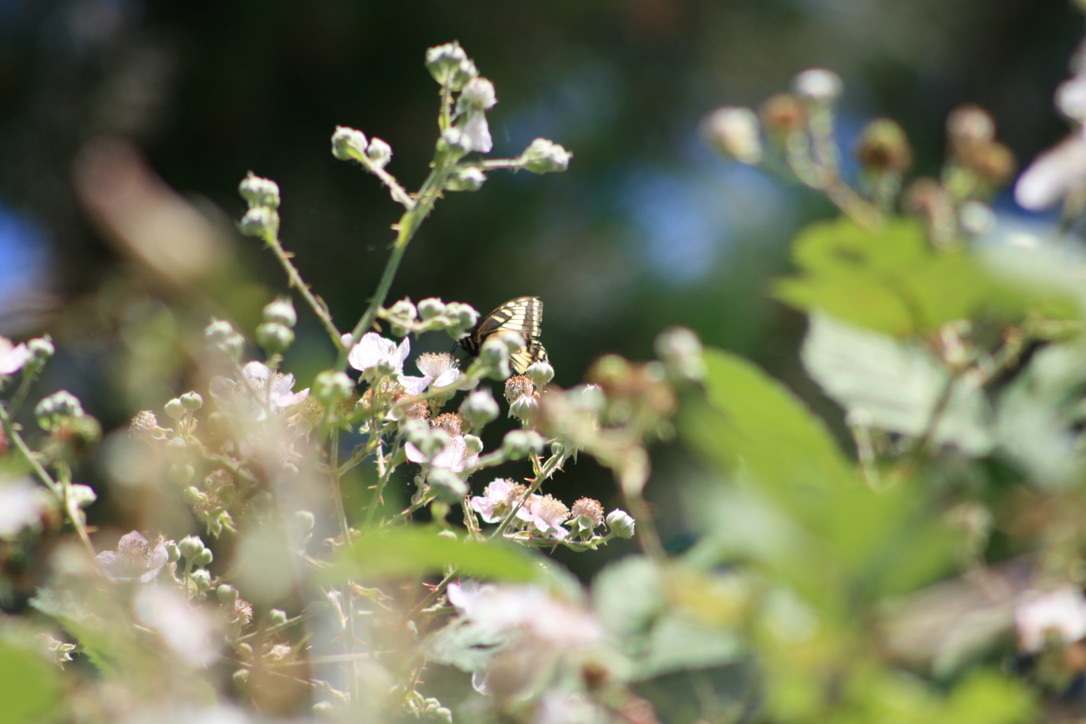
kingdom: Animalia
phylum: Arthropoda
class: Insecta
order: Lepidoptera
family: Papilionidae
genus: Papilio
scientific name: Papilio zelicaon
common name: Anise swallowtail
